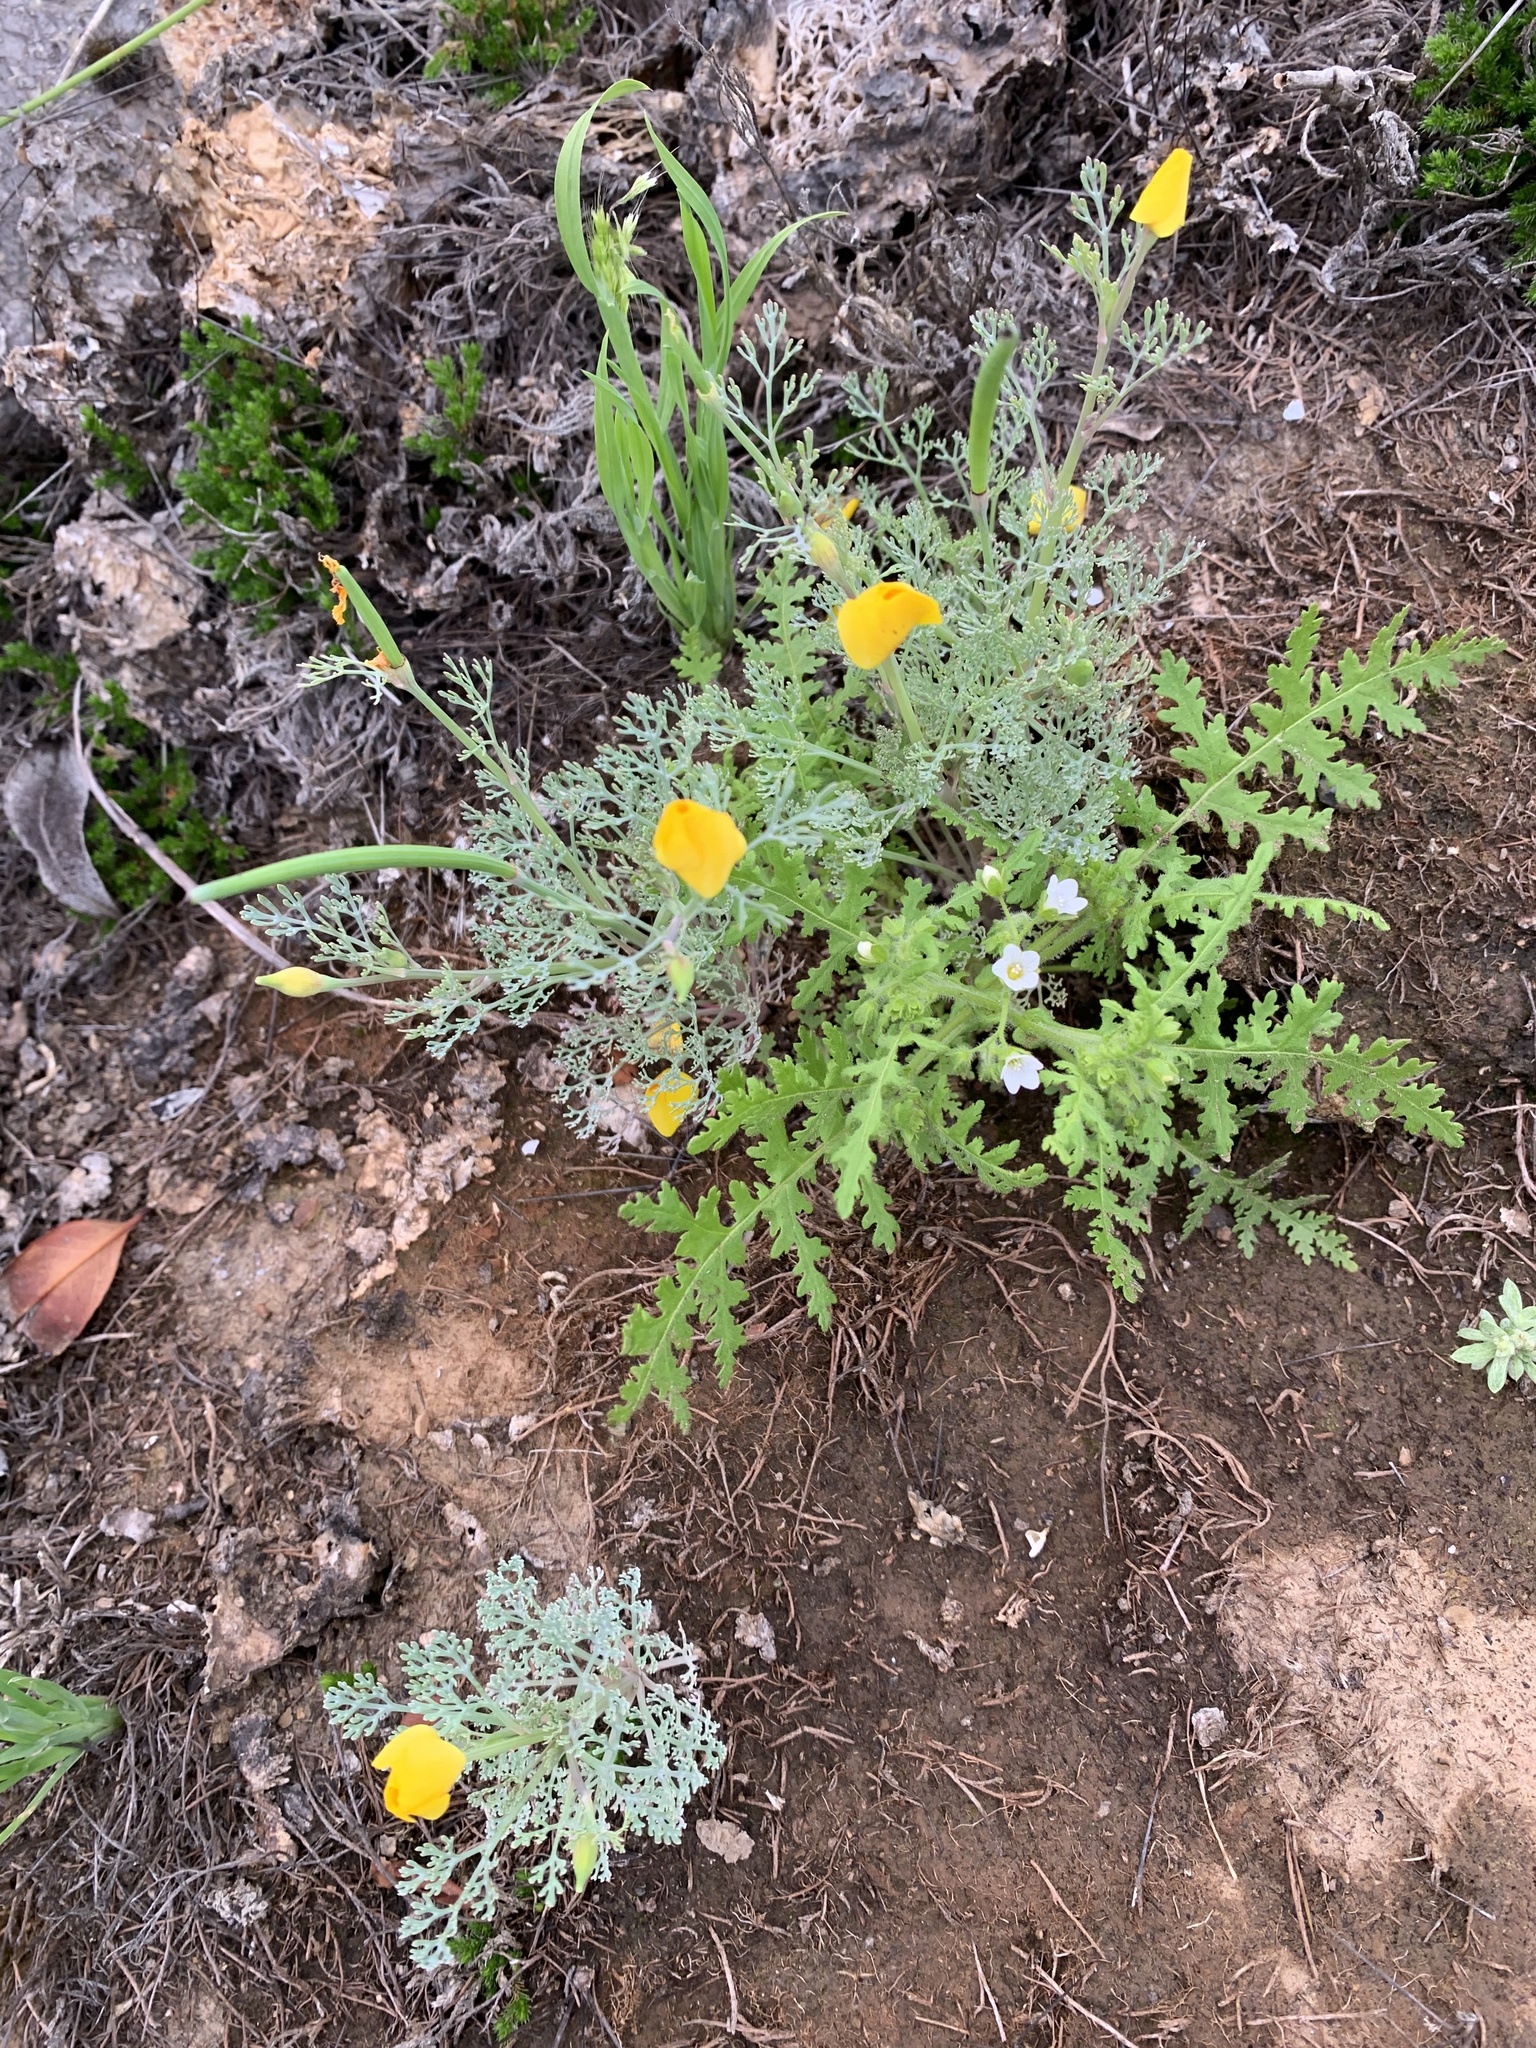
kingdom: Plantae
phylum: Tracheophyta
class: Magnoliopsida
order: Ranunculales
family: Papaveraceae
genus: Eschscholzia
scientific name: Eschscholzia ramosa
